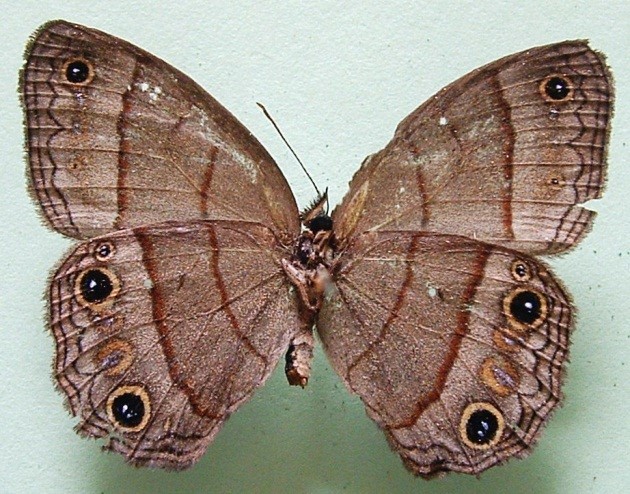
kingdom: Animalia
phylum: Arthropoda
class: Insecta
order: Lepidoptera
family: Nymphalidae
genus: Euptychia
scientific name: Euptychia Cissia pompilia
